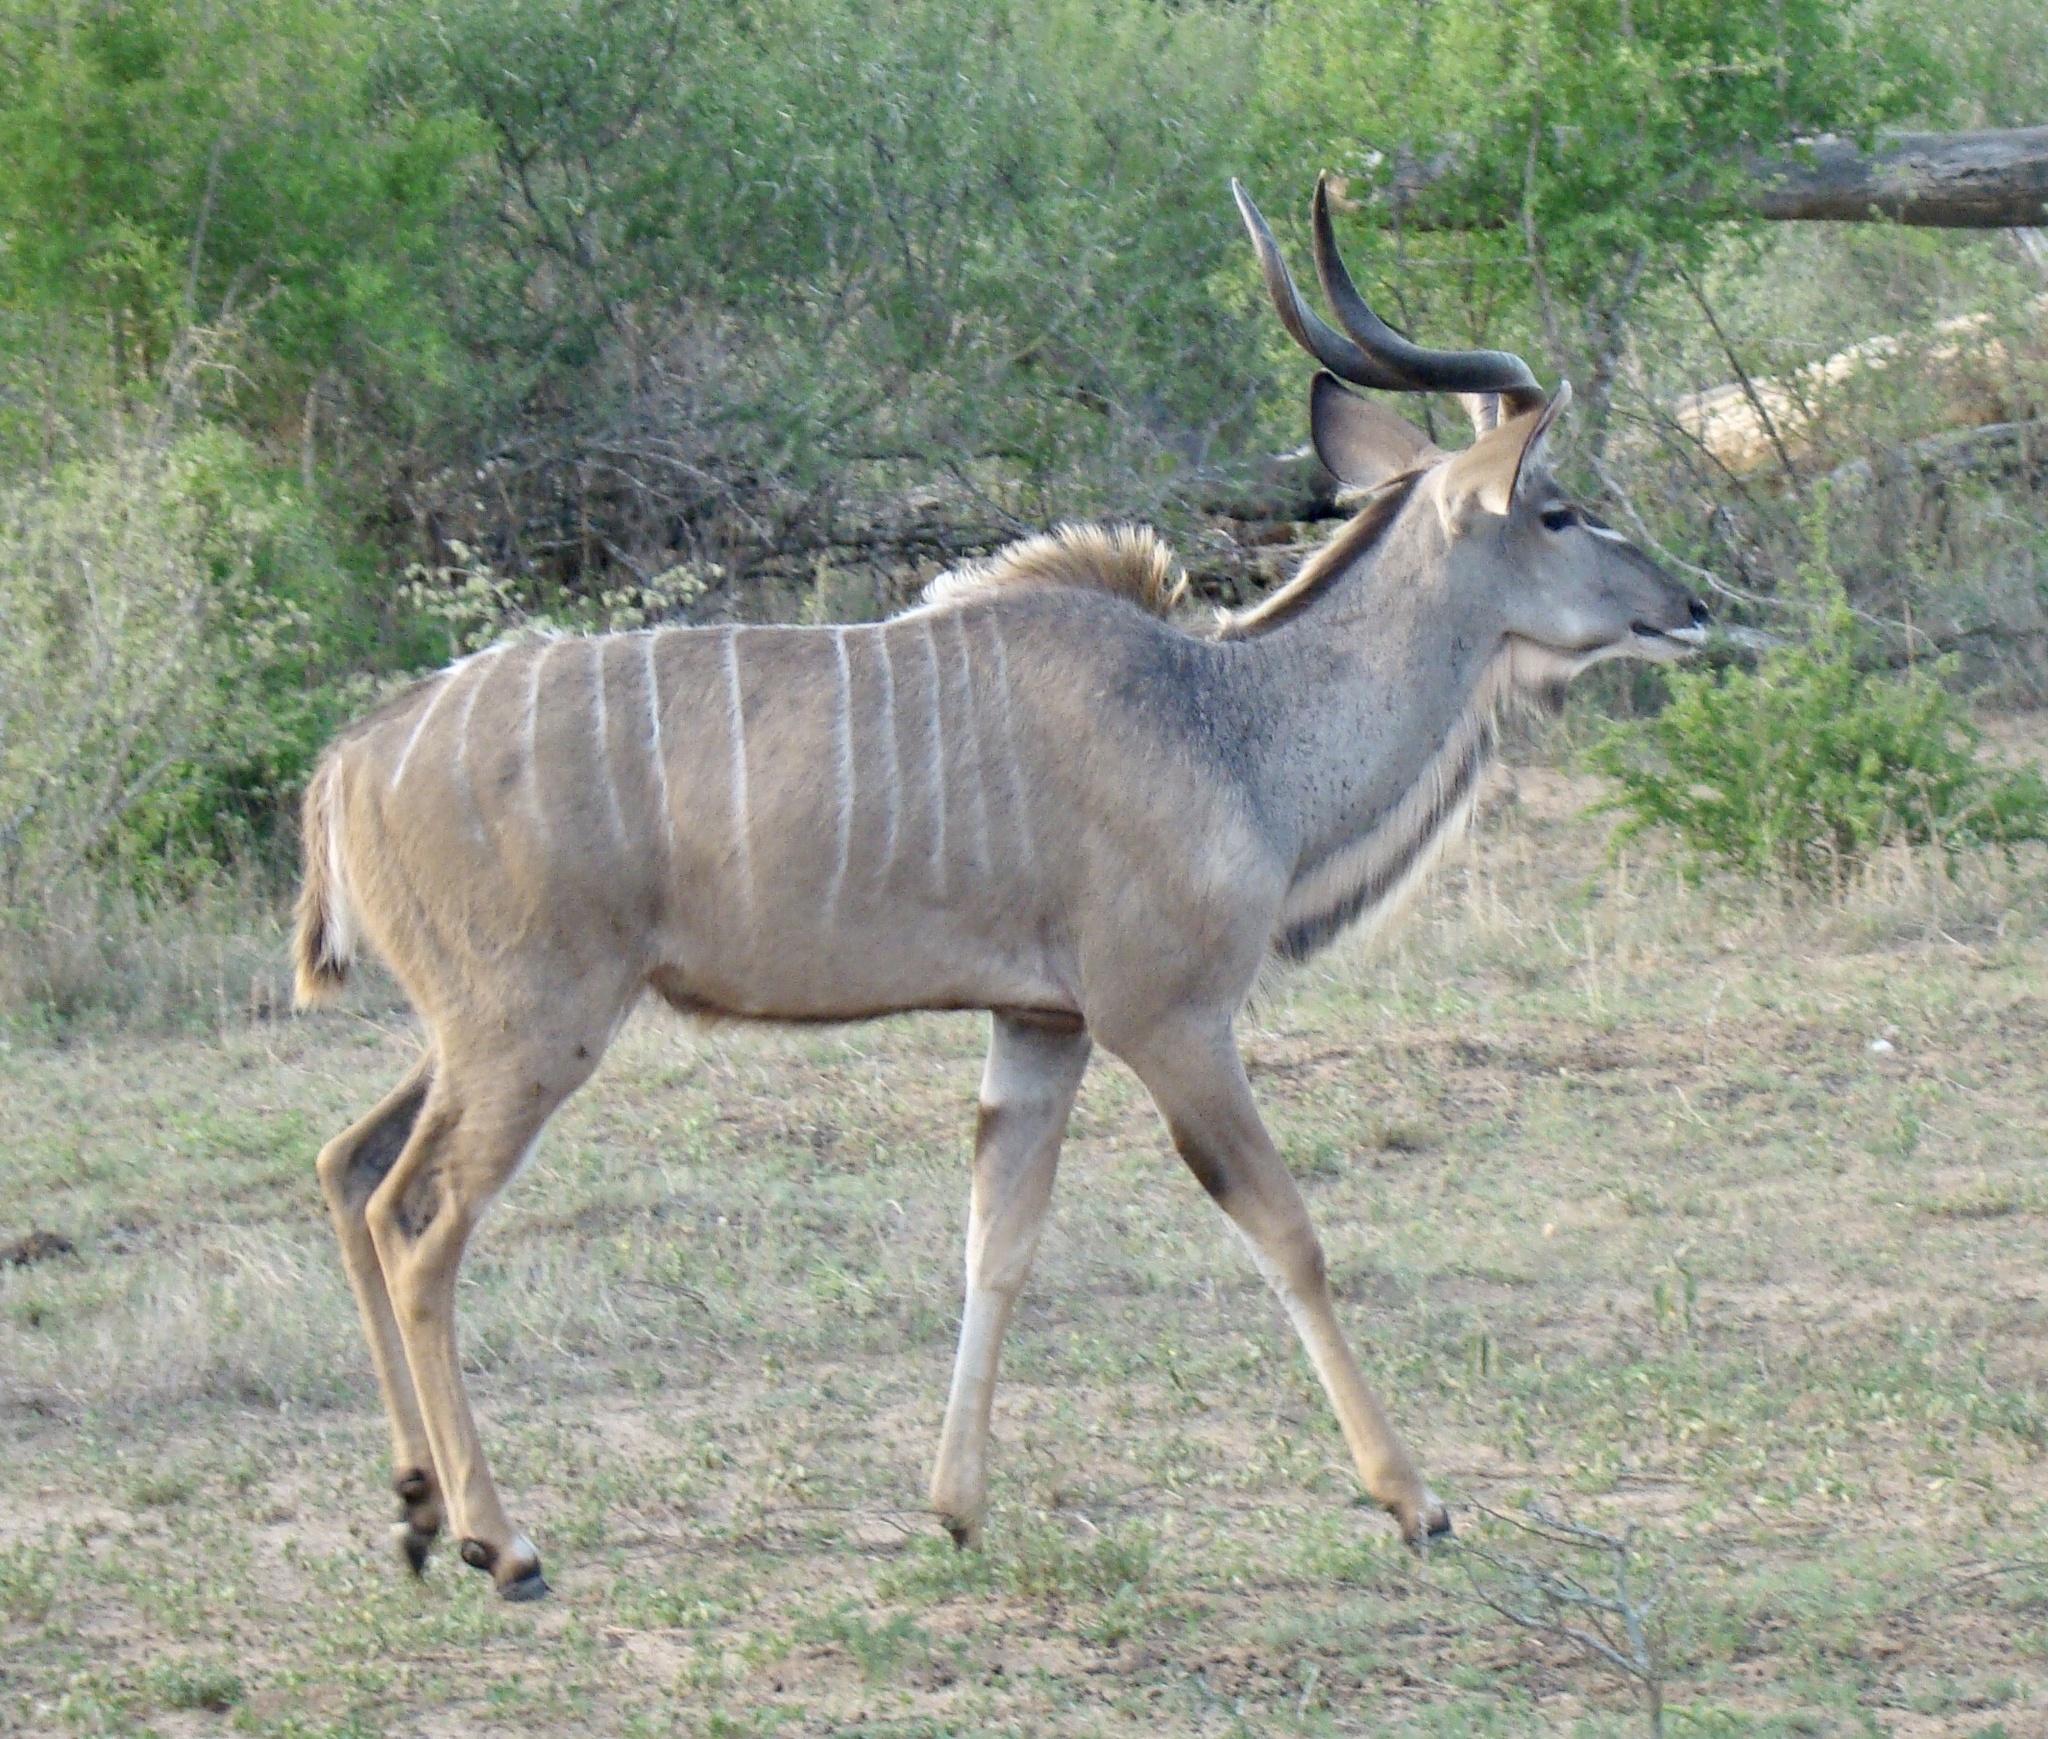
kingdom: Animalia
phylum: Chordata
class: Mammalia
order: Artiodactyla
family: Bovidae
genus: Tragelaphus
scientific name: Tragelaphus strepsiceros
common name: Greater kudu
